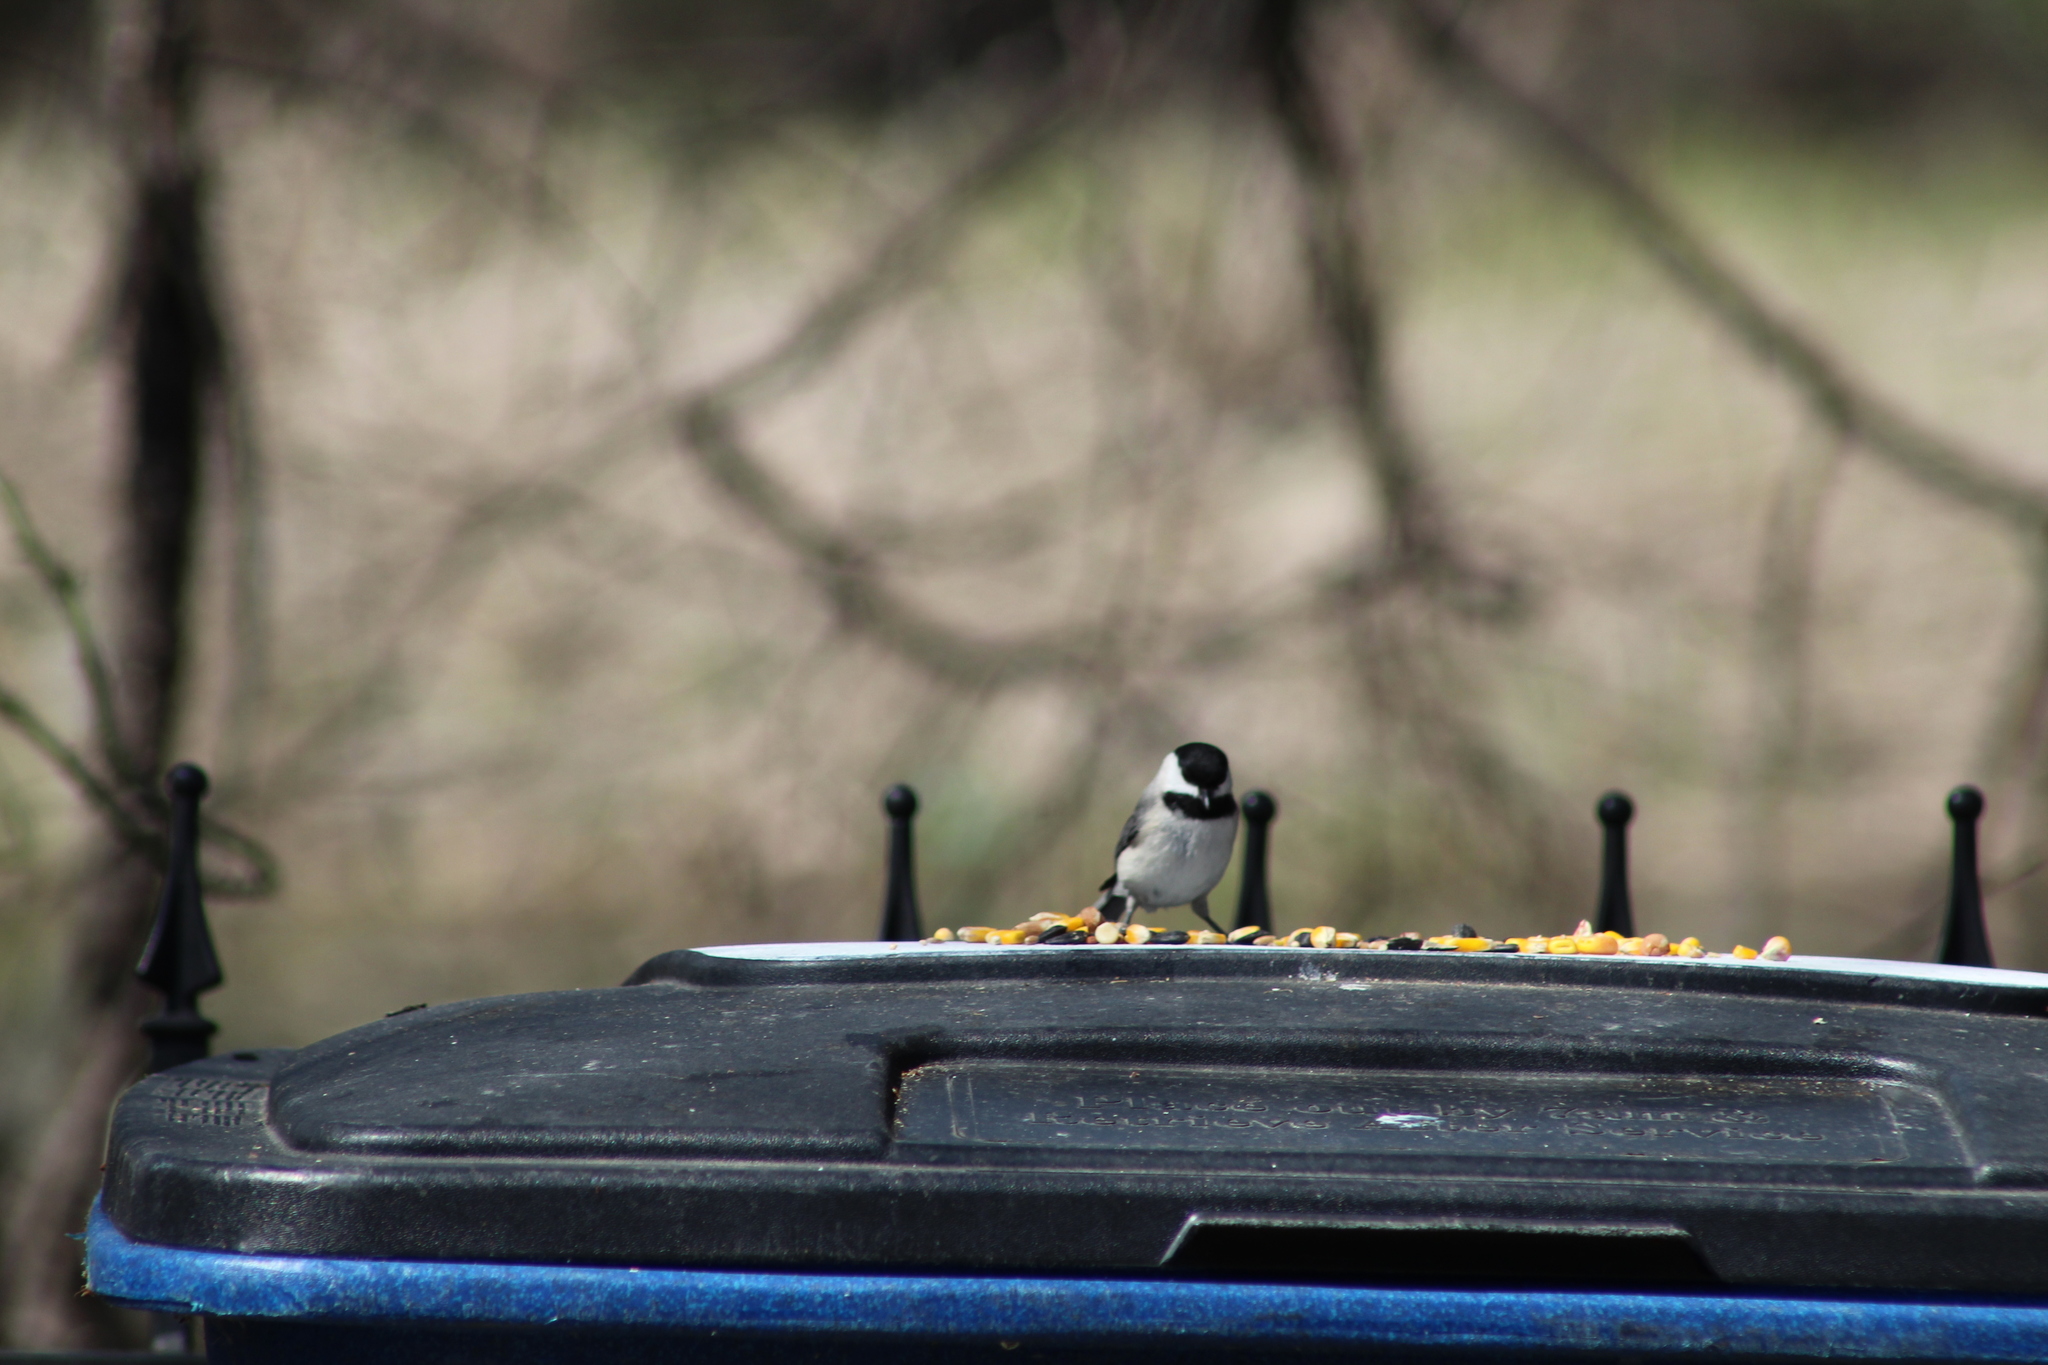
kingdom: Animalia
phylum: Chordata
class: Aves
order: Passeriformes
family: Paridae
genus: Poecile
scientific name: Poecile carolinensis
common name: Carolina chickadee
